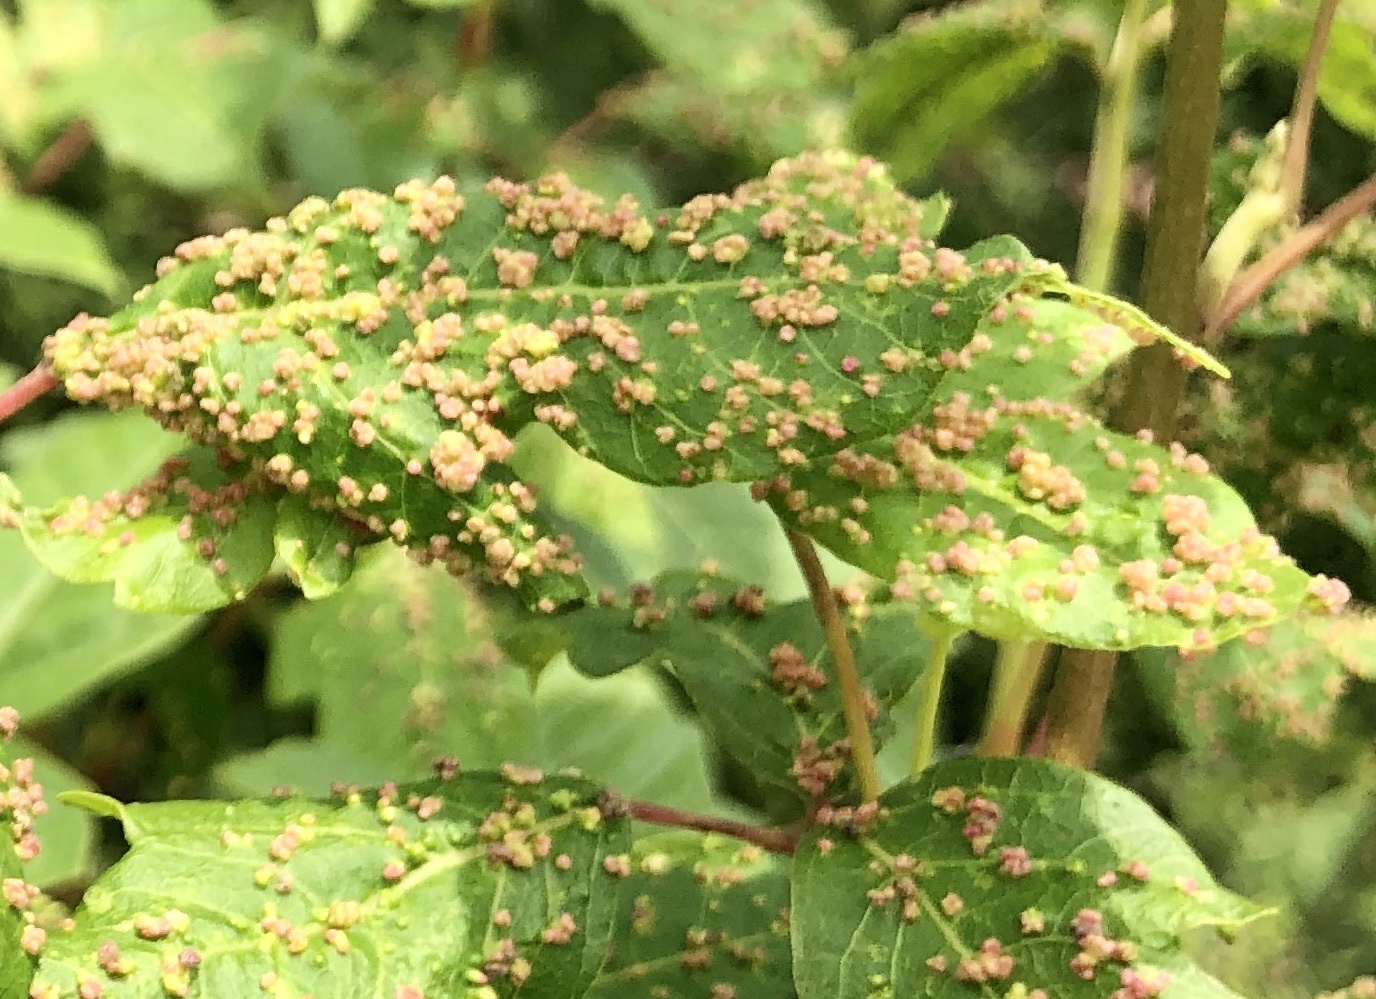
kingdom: Animalia
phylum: Arthropoda
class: Arachnida
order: Trombidiformes
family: Eriophyidae
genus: Aculops
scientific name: Aculops
